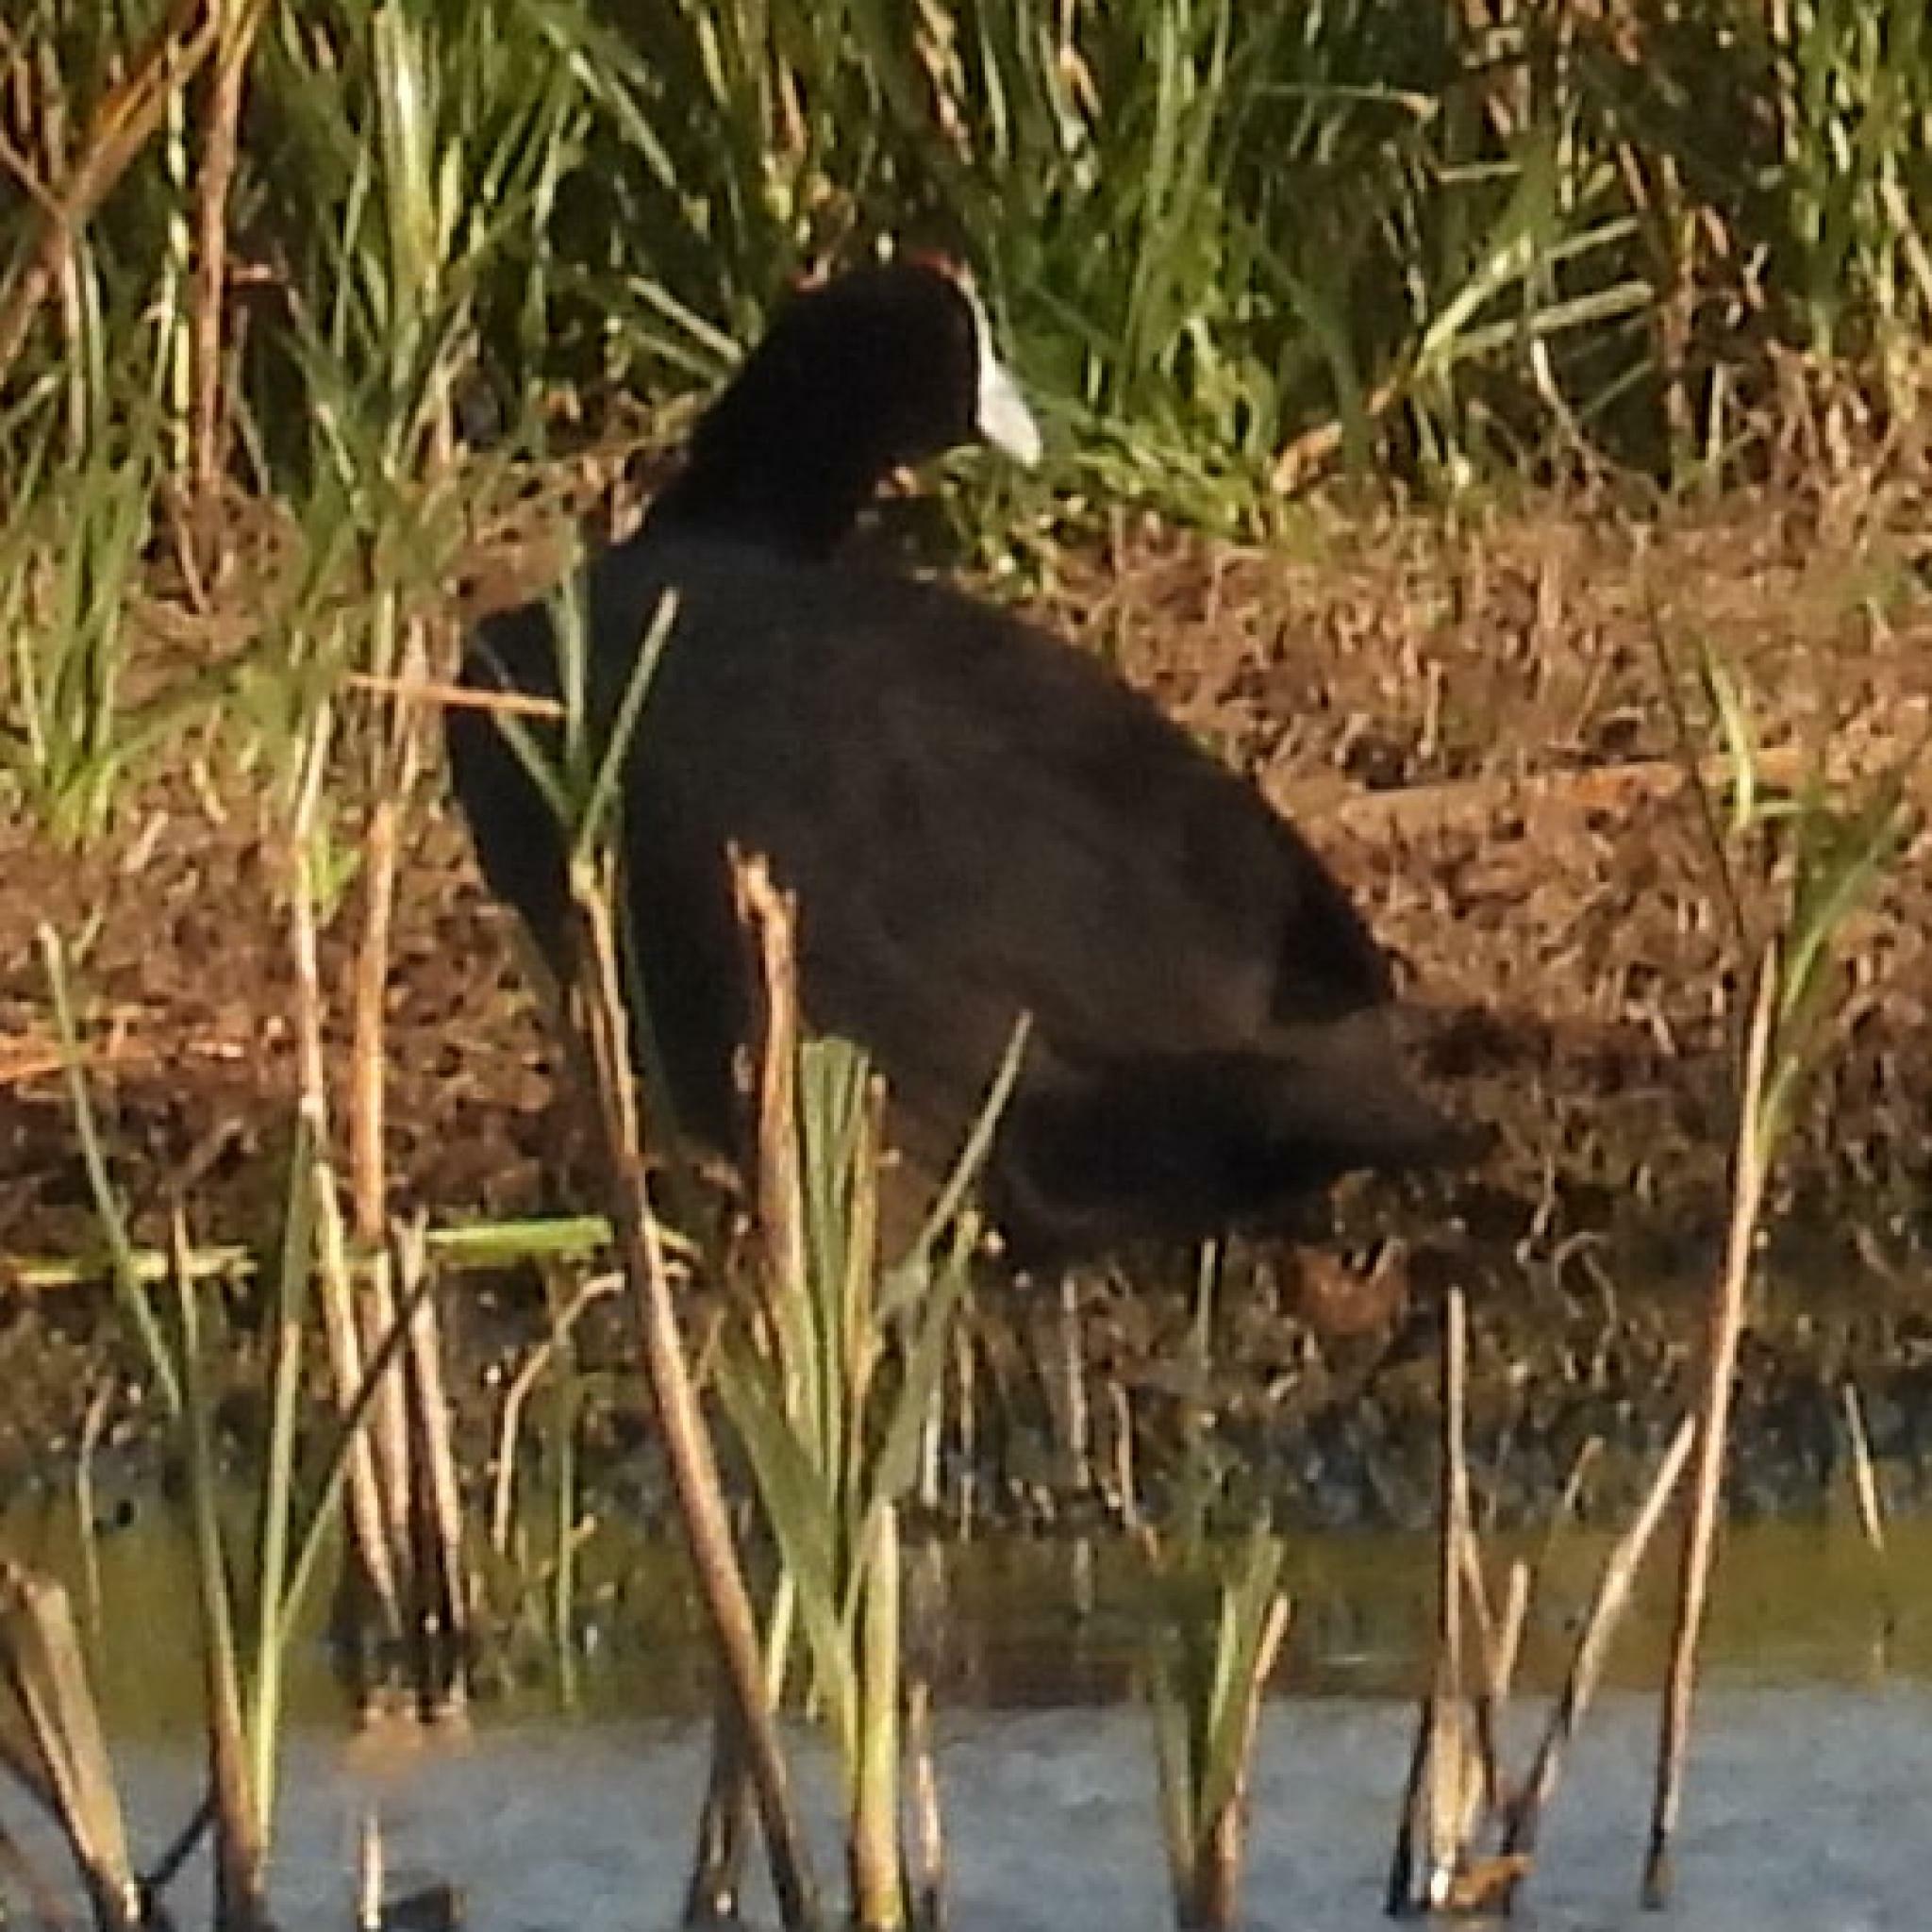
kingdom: Animalia
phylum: Chordata
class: Aves
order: Gruiformes
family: Rallidae
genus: Fulica
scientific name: Fulica cristata
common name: Red-knobbed coot
